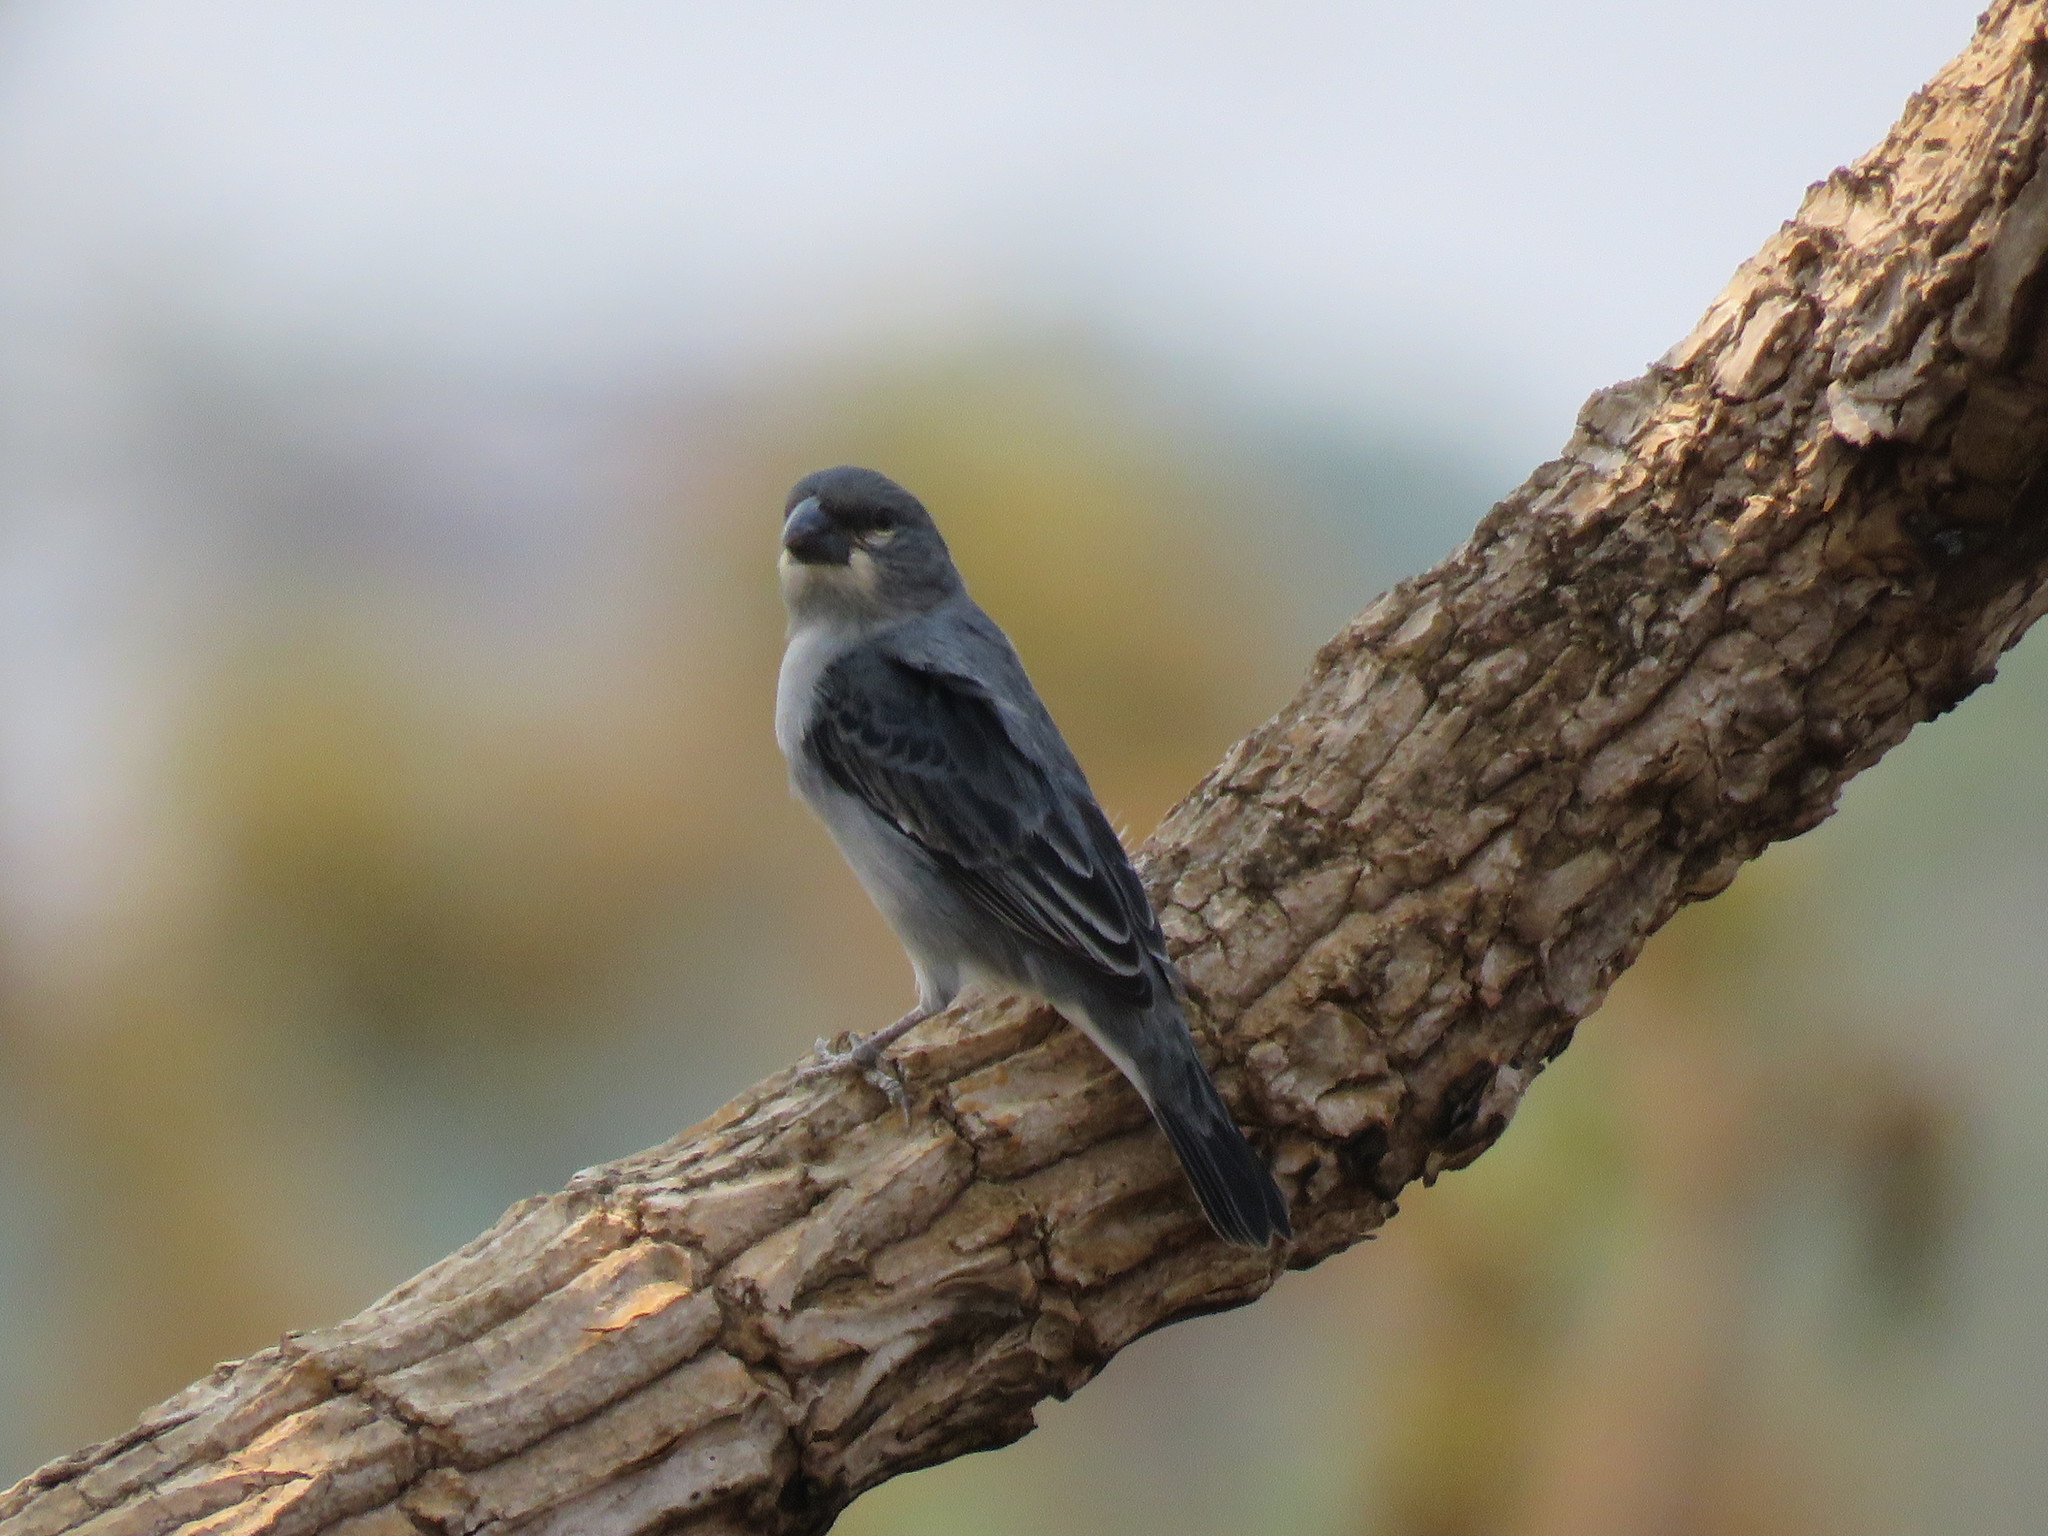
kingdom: Animalia
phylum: Chordata
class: Aves
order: Passeriformes
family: Thraupidae
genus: Sporophila
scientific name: Sporophila plumbea
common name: Plumbeous seedeater
